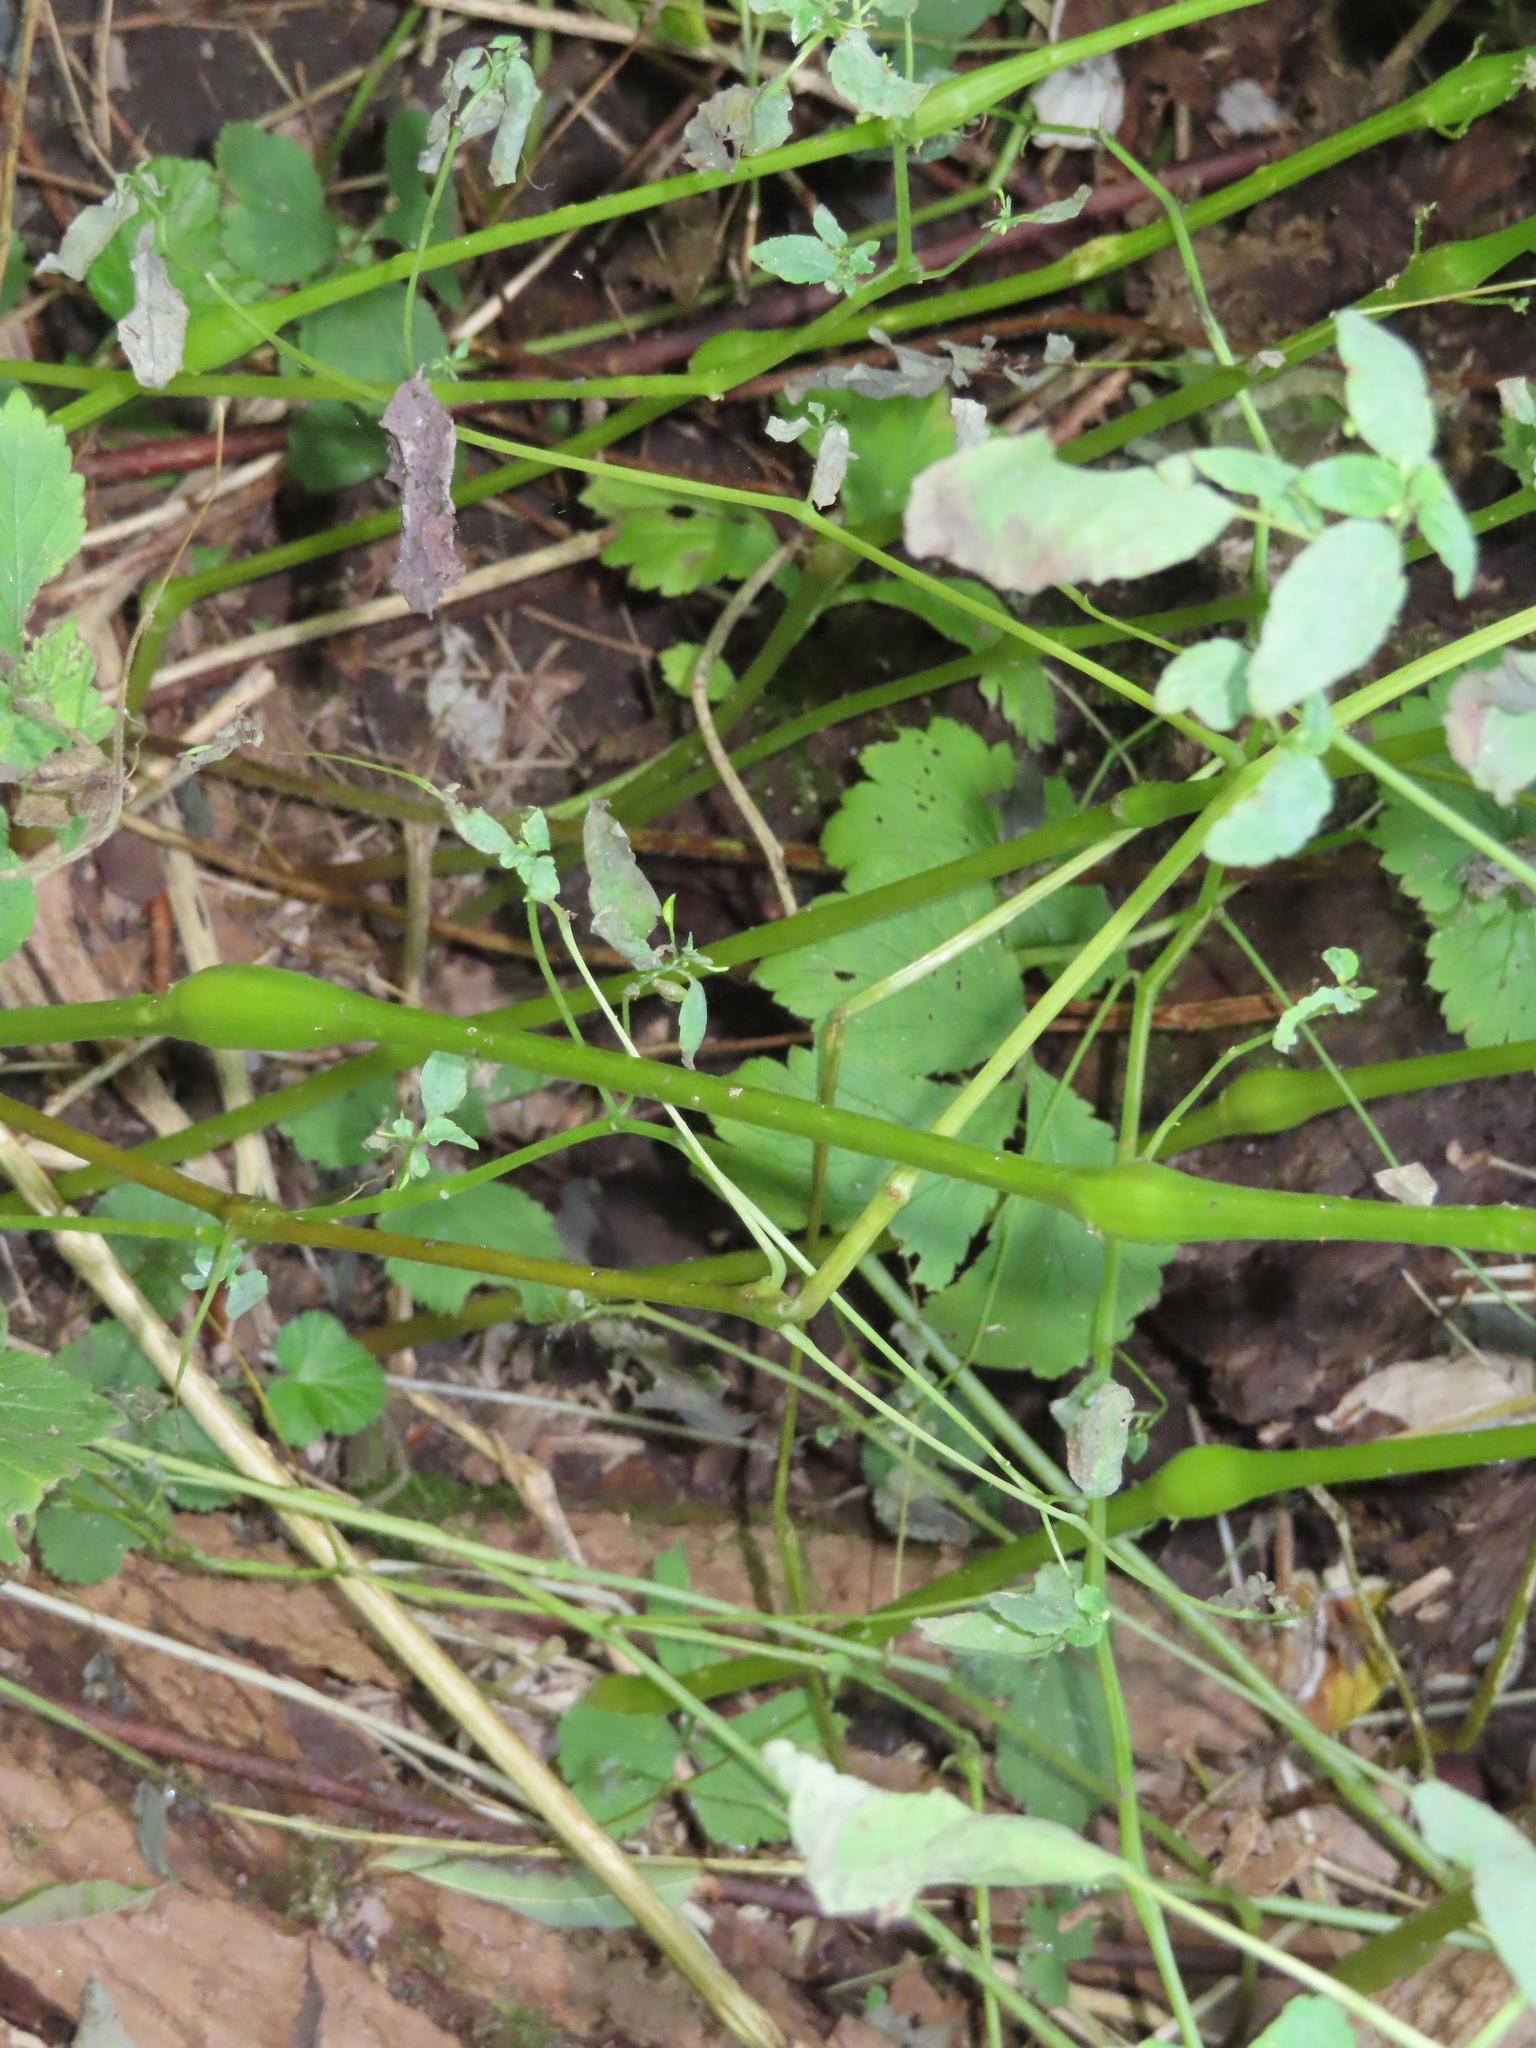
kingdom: Animalia
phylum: Arthropoda
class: Insecta
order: Diptera
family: Cecidomyiidae
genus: Lasioptera
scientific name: Lasioptera centerensis
